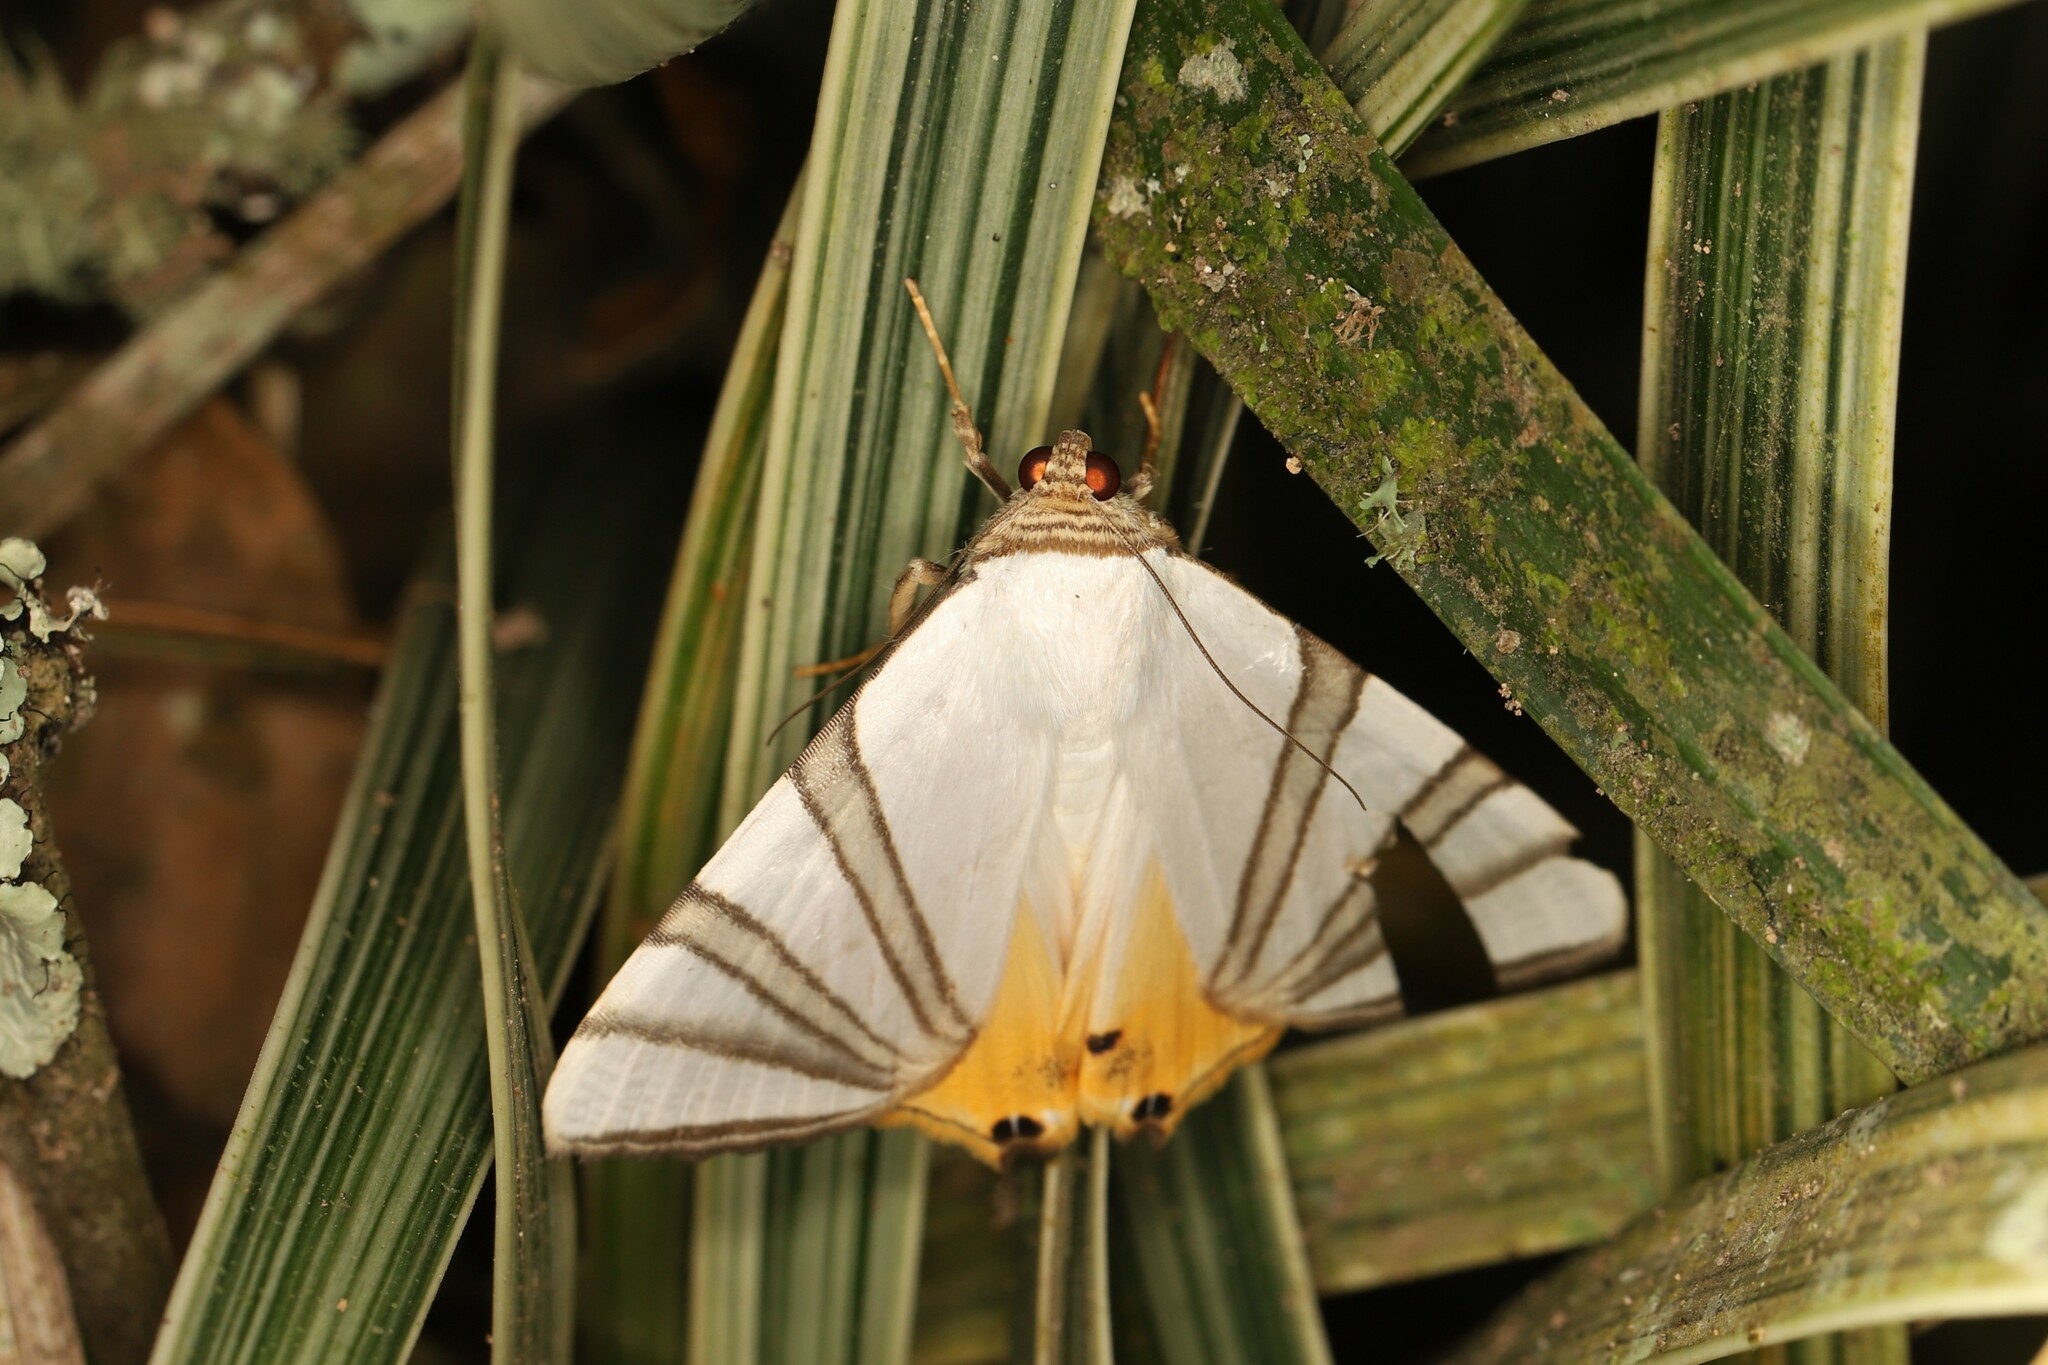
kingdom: Animalia
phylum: Arthropoda
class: Insecta
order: Lepidoptera
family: Erebidae
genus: Eulepidotis
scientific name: Eulepidotis geminata
